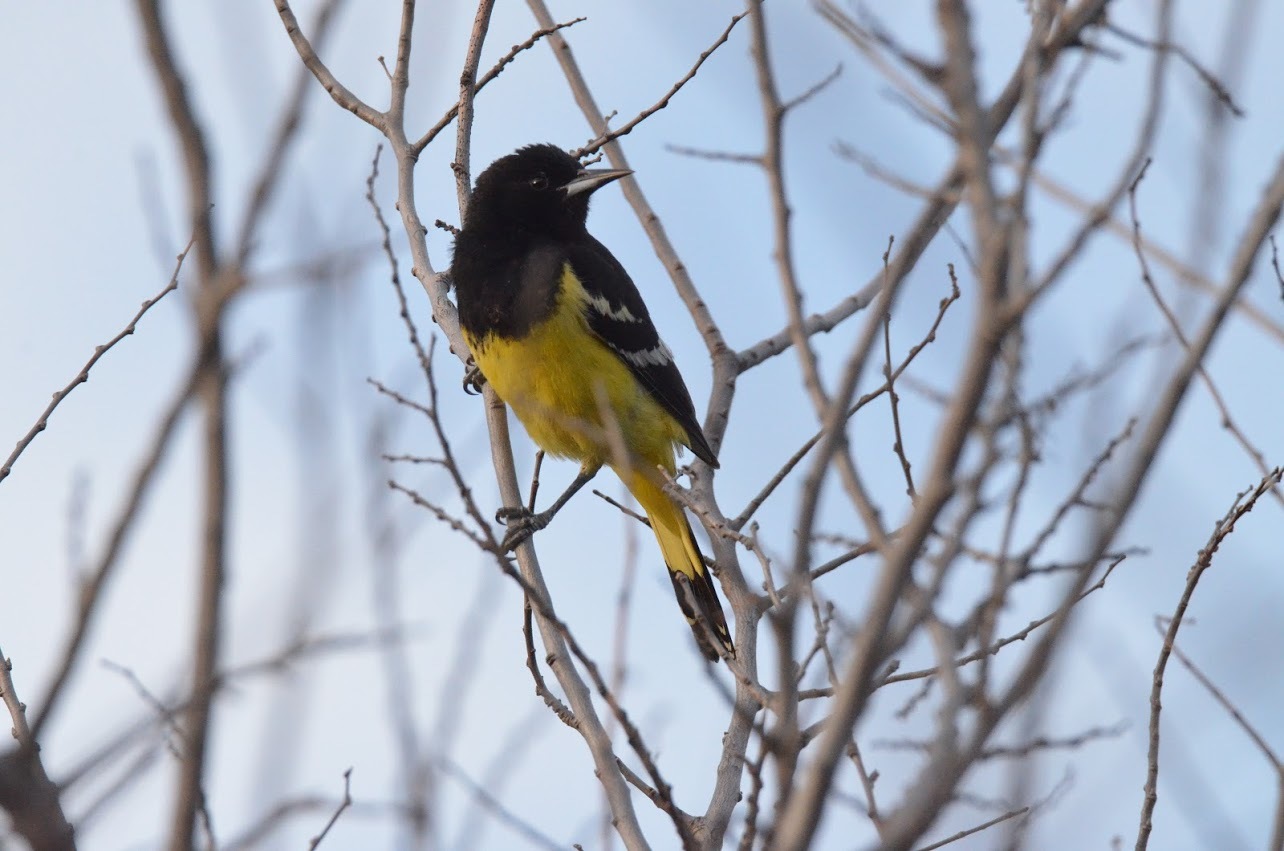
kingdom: Animalia
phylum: Chordata
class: Aves
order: Passeriformes
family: Icteridae
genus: Icterus
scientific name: Icterus parisorum
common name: Scott's oriole
